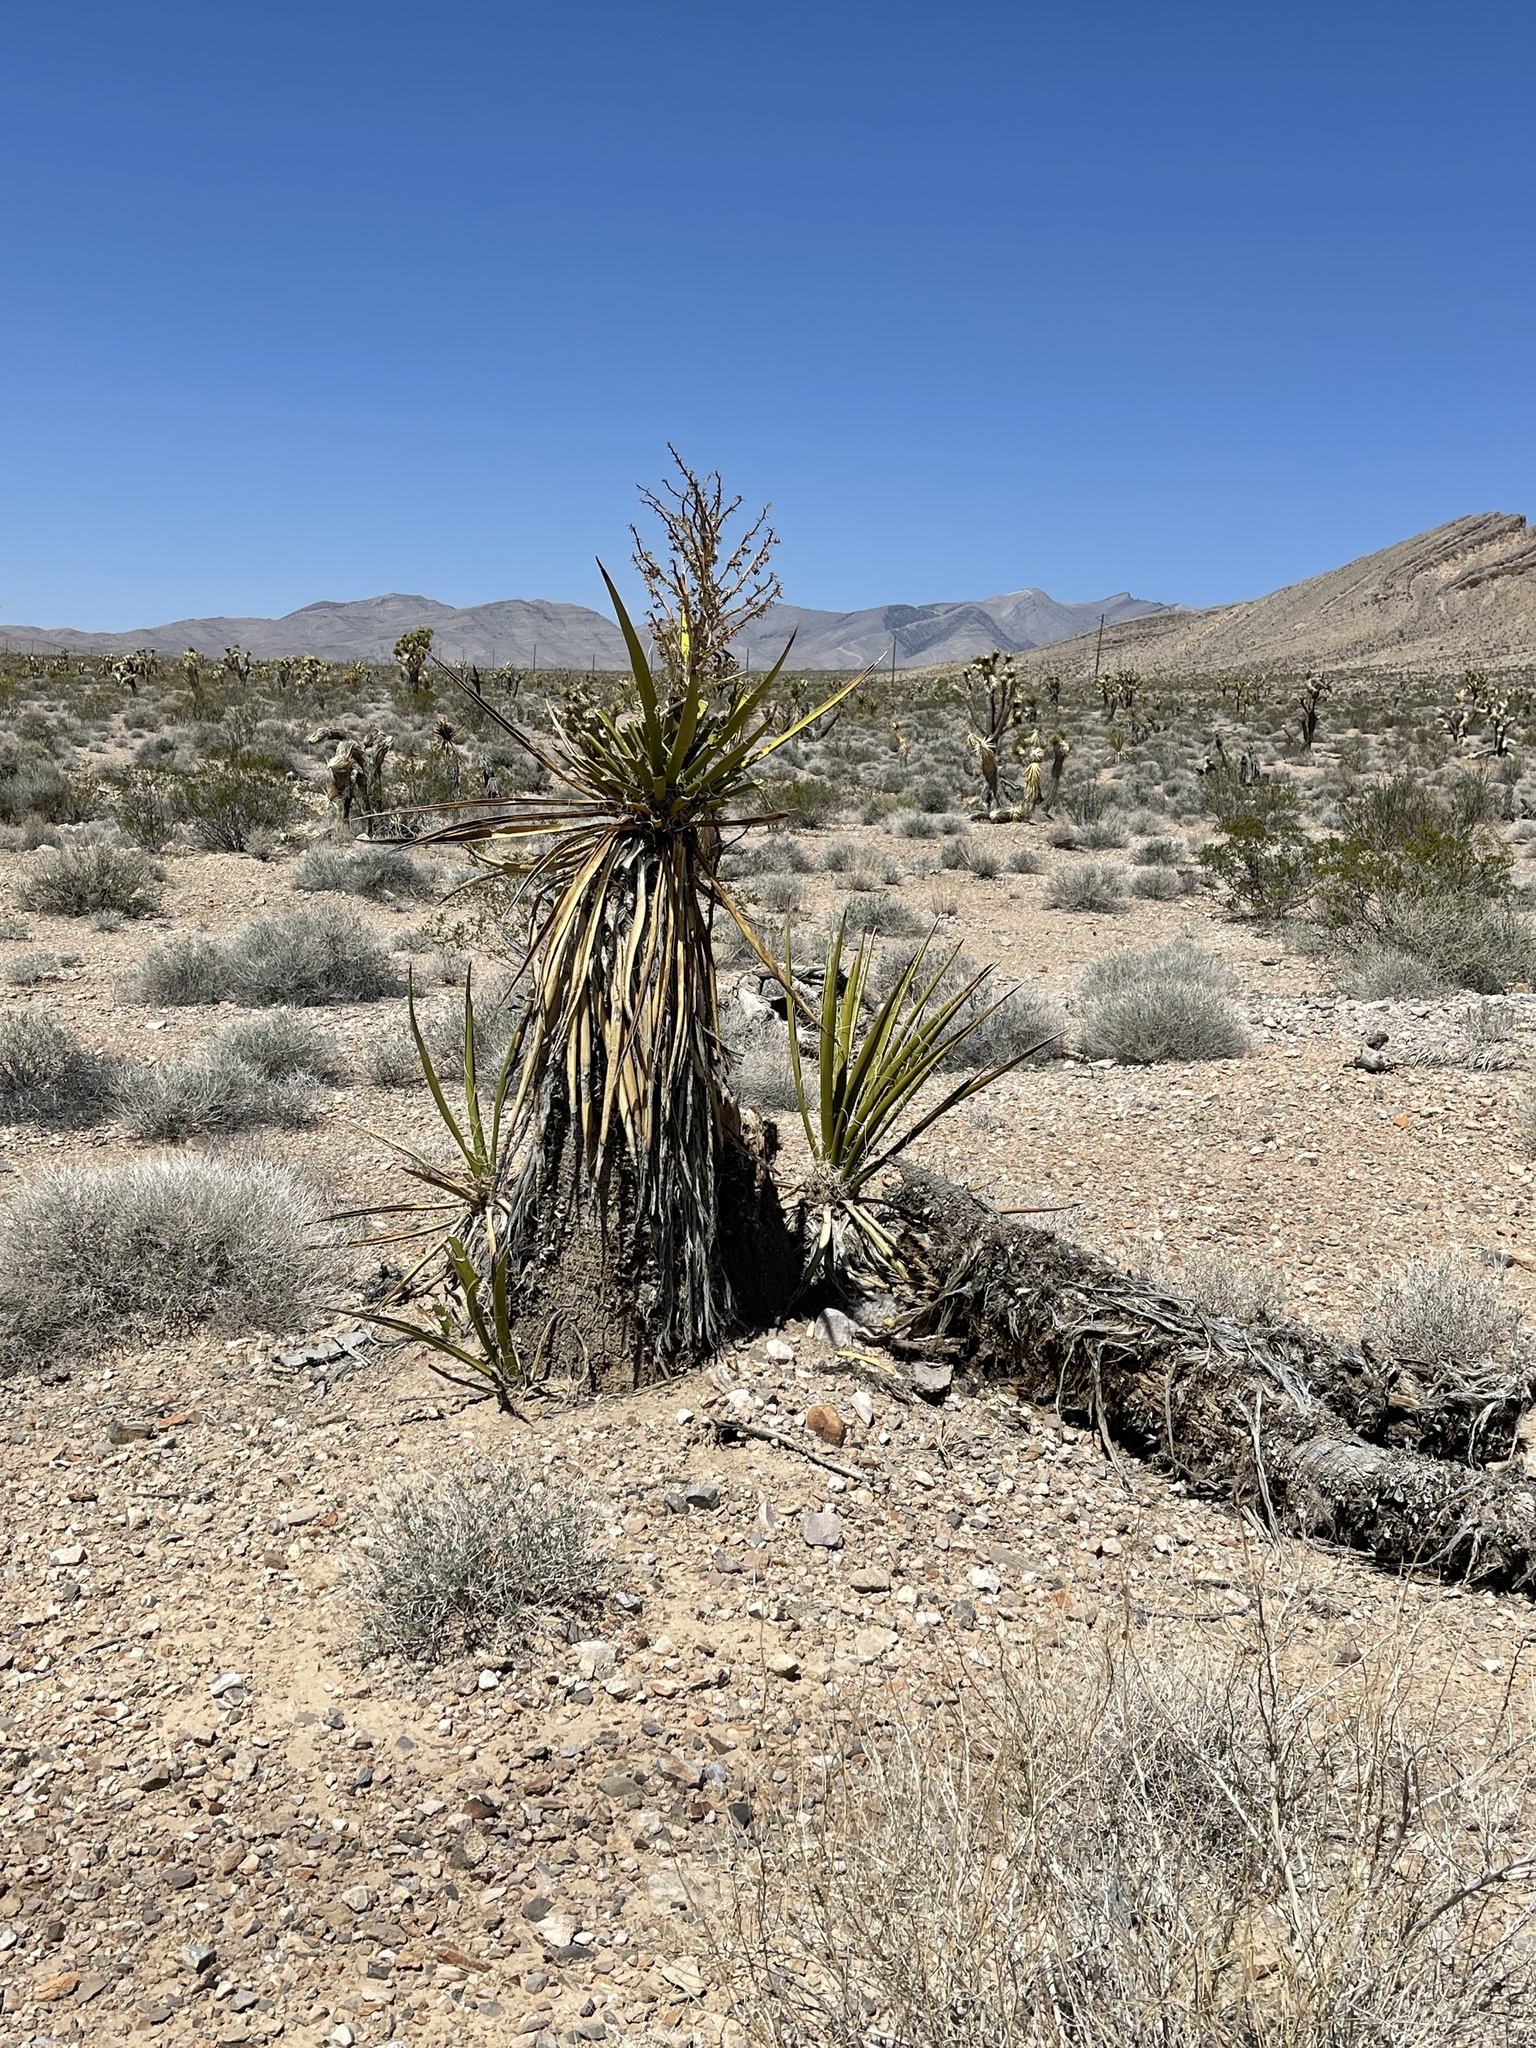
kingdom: Plantae
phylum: Tracheophyta
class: Liliopsida
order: Asparagales
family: Asparagaceae
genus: Yucca
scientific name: Yucca schidigera
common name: Mojave yucca
